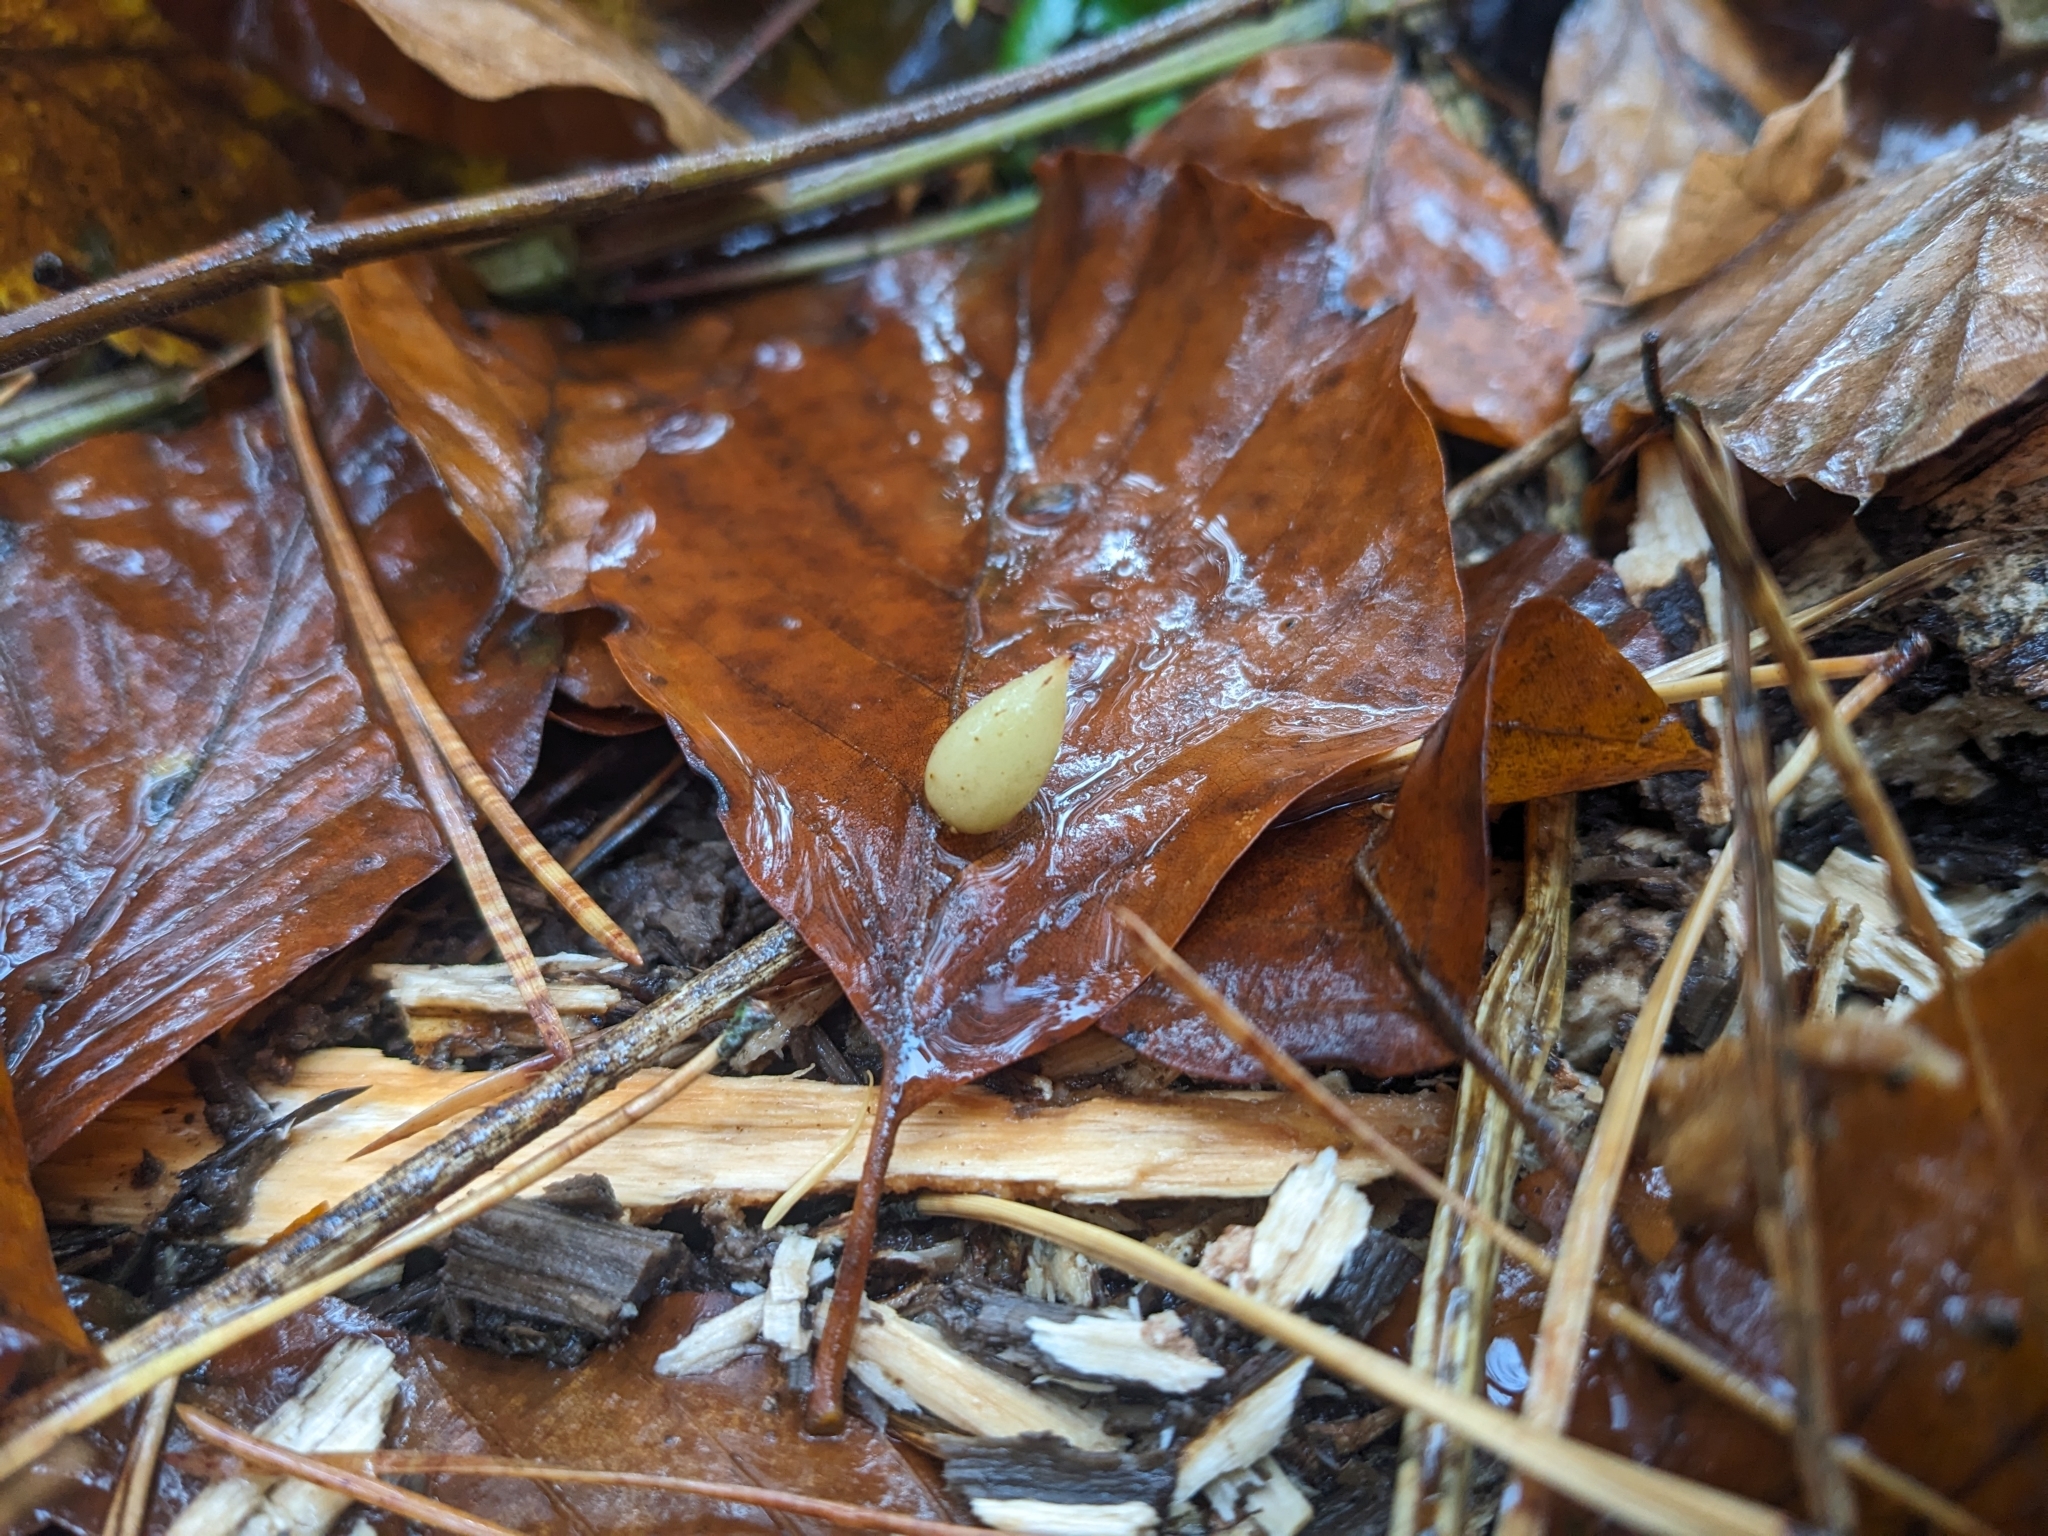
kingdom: Animalia
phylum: Arthropoda
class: Insecta
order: Diptera
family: Cecidomyiidae
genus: Mikiola
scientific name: Mikiola fagi
